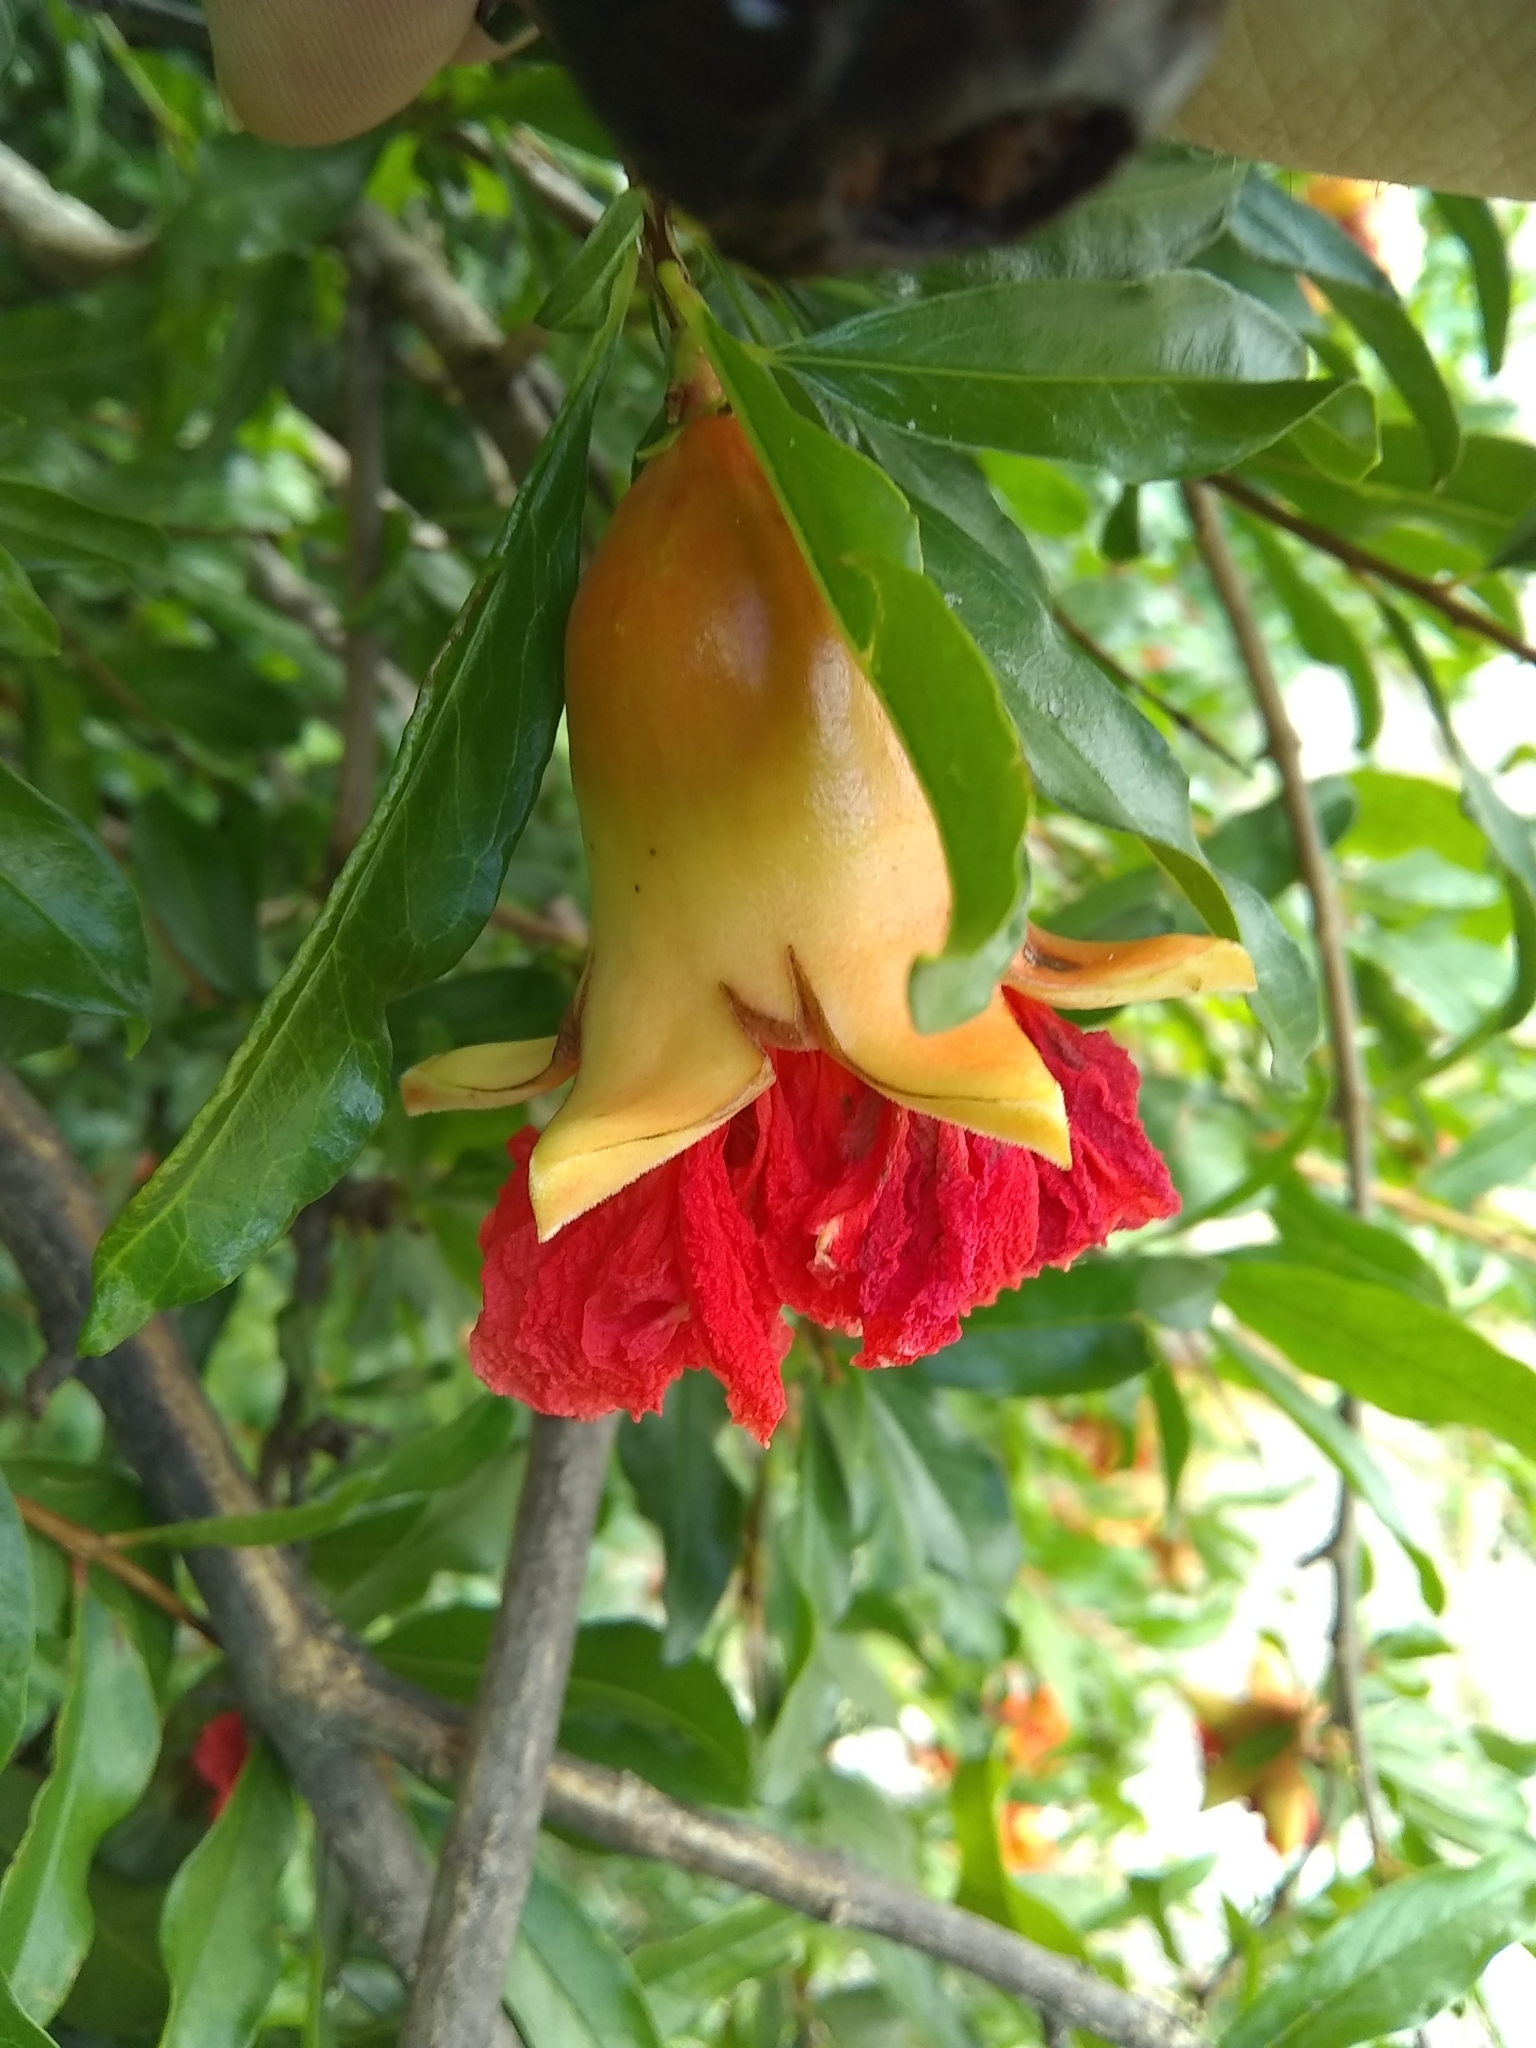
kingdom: Plantae
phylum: Tracheophyta
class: Magnoliopsida
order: Myrtales
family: Lythraceae
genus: Punica
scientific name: Punica granatum
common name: Pomegranate
